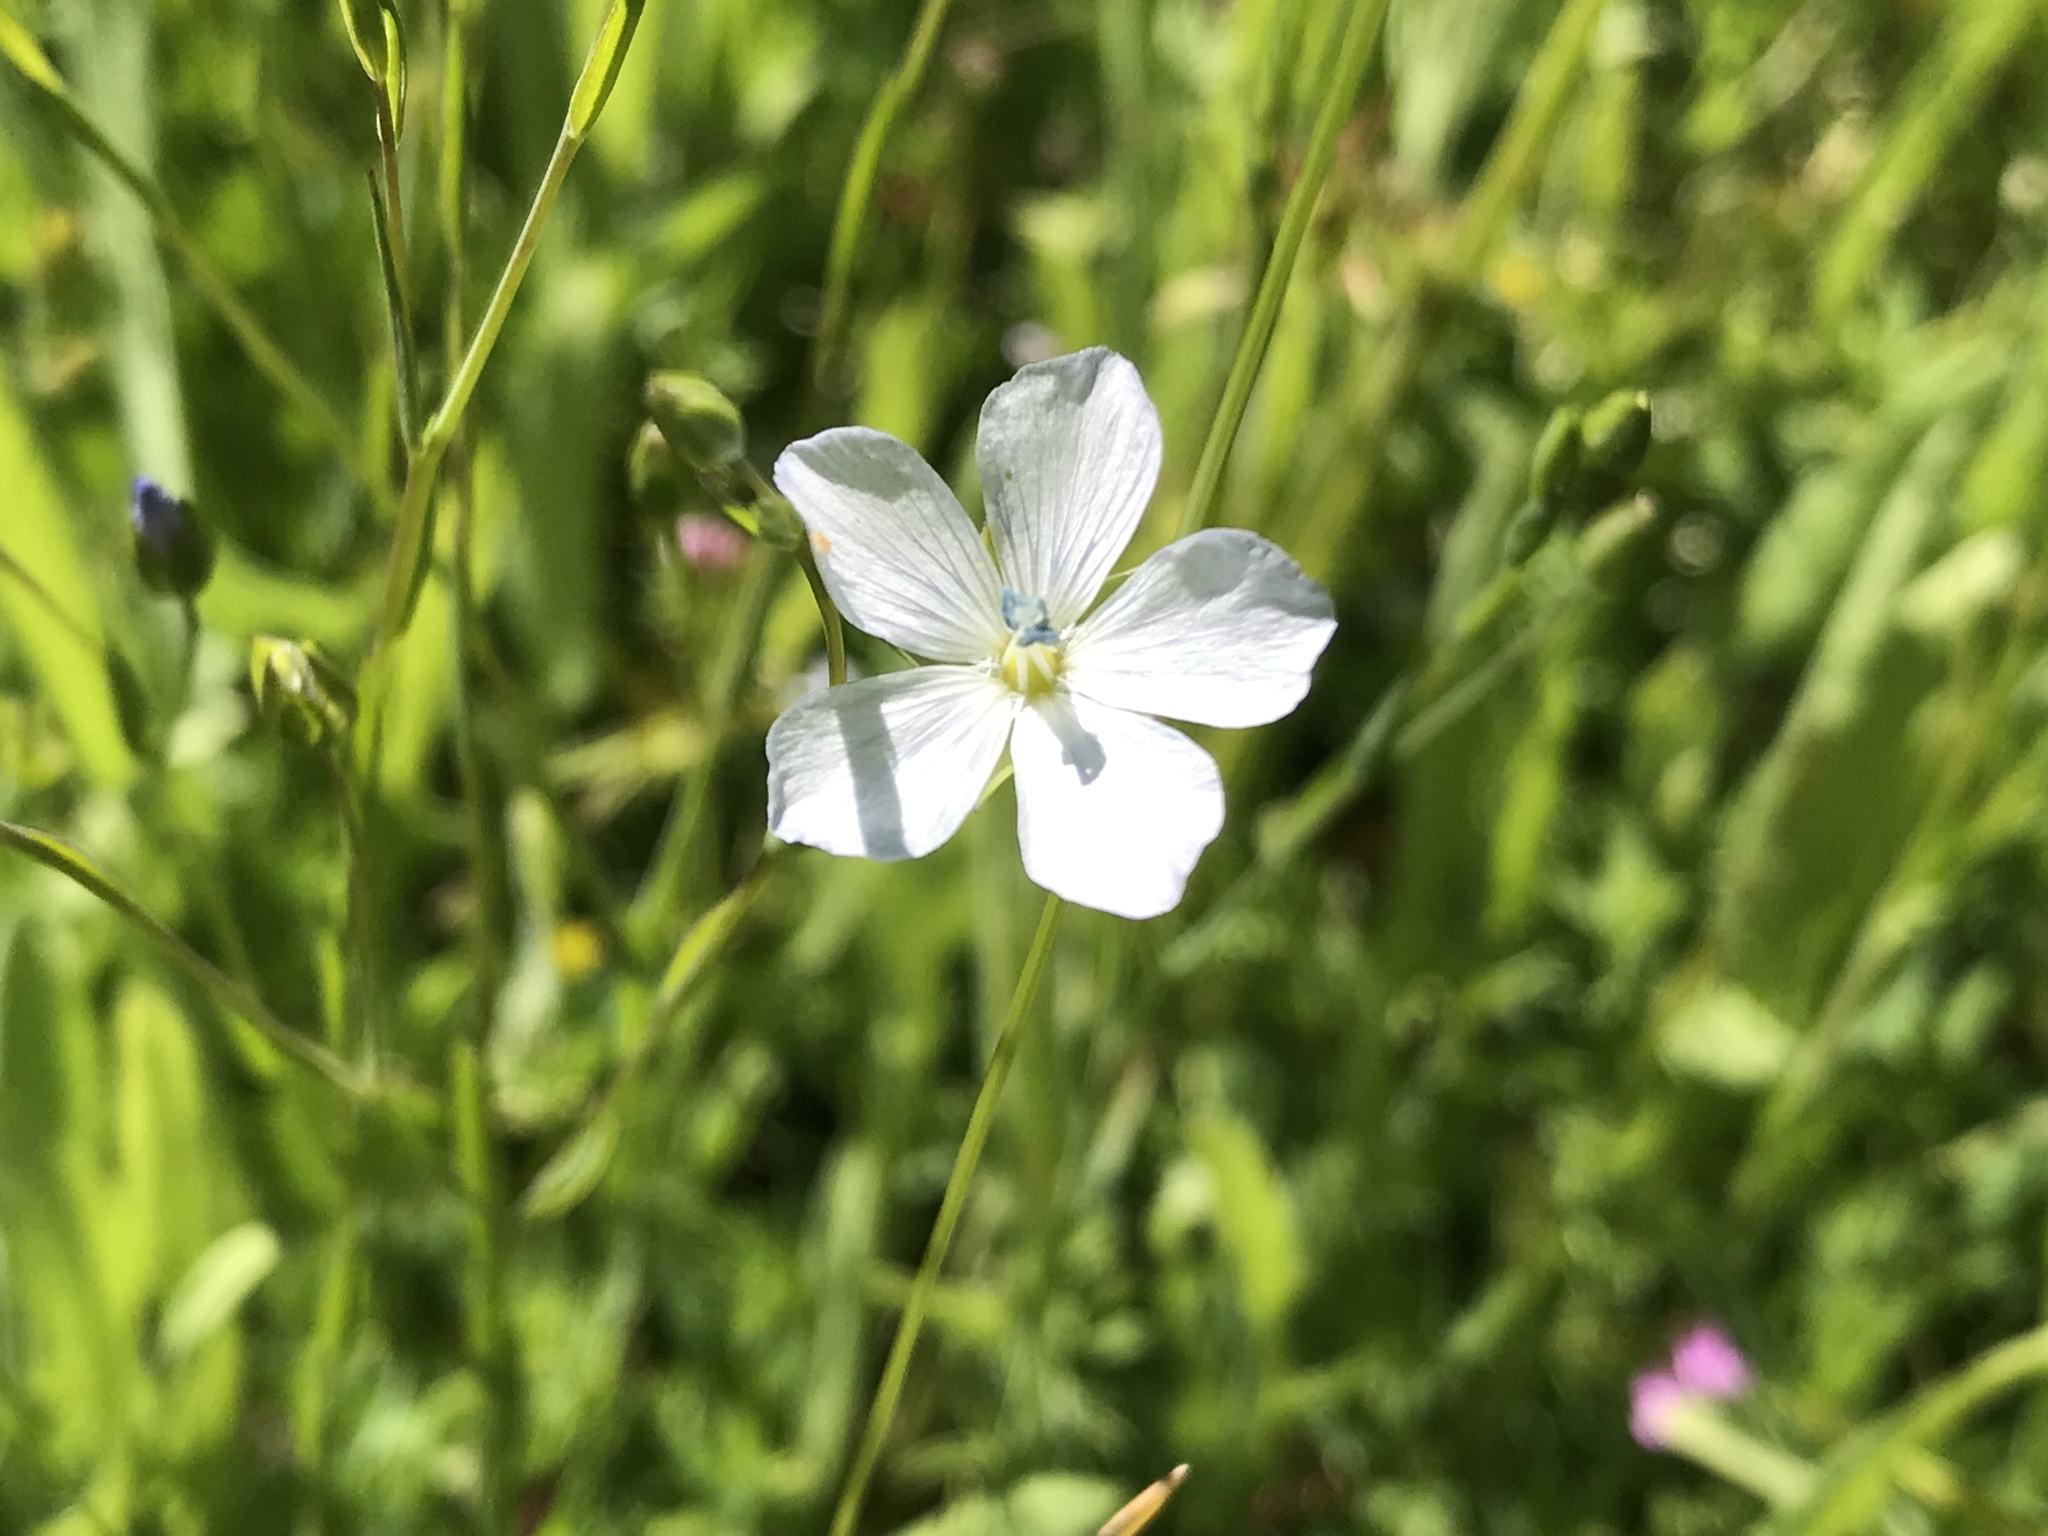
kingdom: Plantae
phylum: Tracheophyta
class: Magnoliopsida
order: Malpighiales
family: Linaceae
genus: Linum
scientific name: Linum bienne
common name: Pale flax
